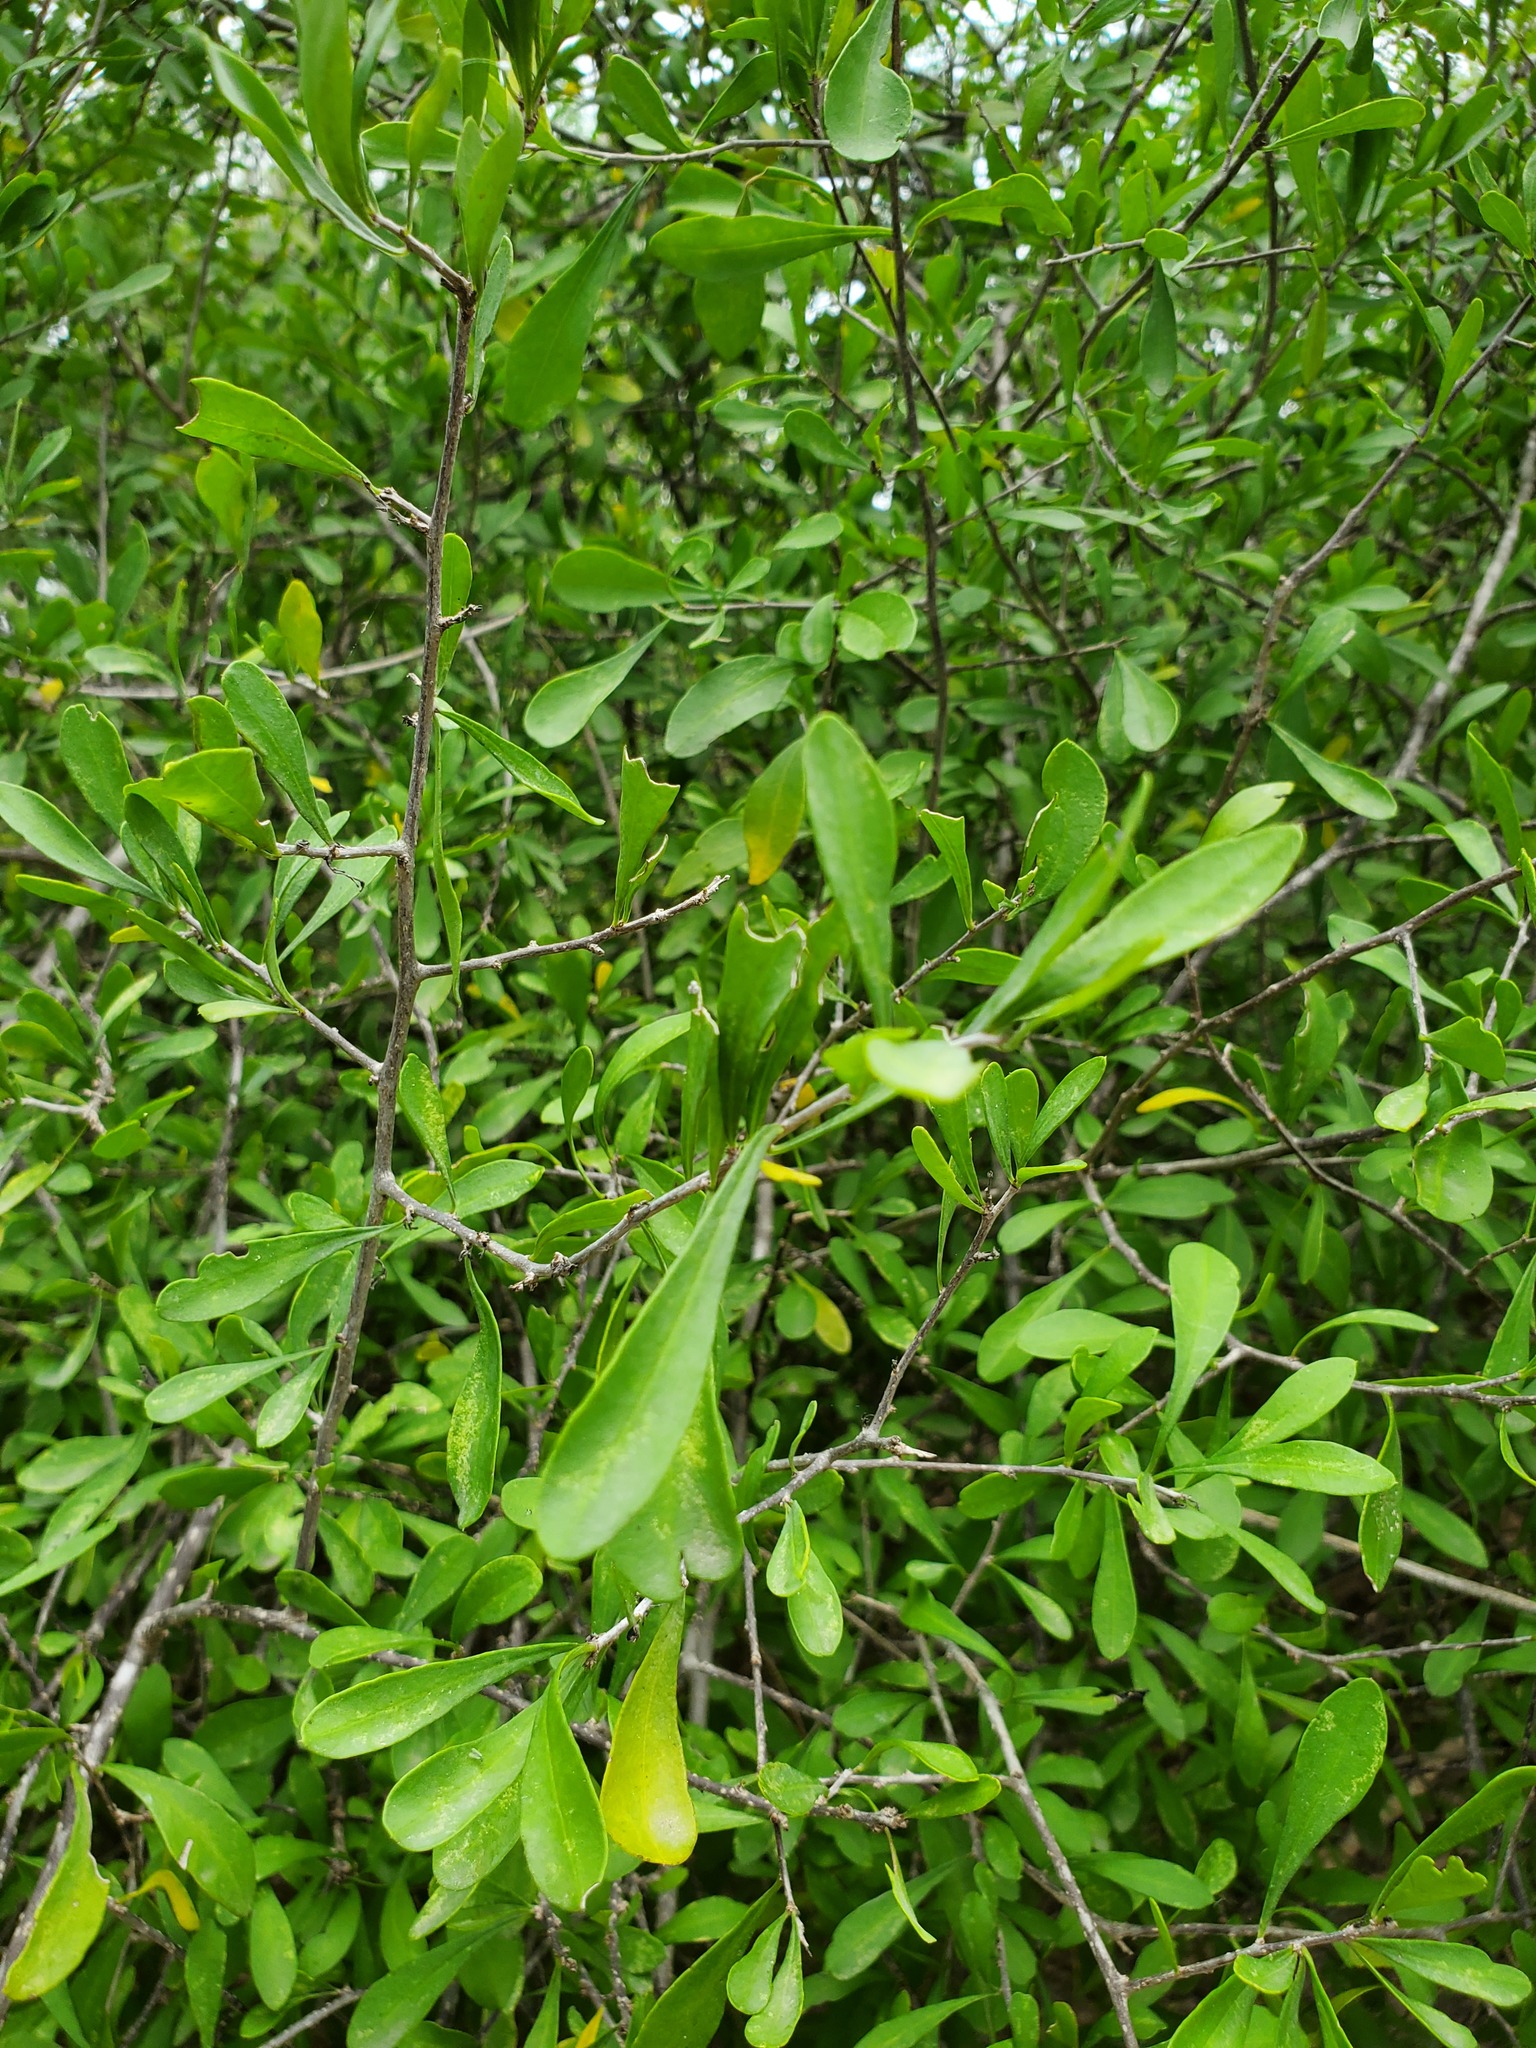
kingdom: Plantae
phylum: Tracheophyta
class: Magnoliopsida
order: Caryophyllales
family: Achatocarpaceae
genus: Phaulothamnus
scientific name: Phaulothamnus spinescens
